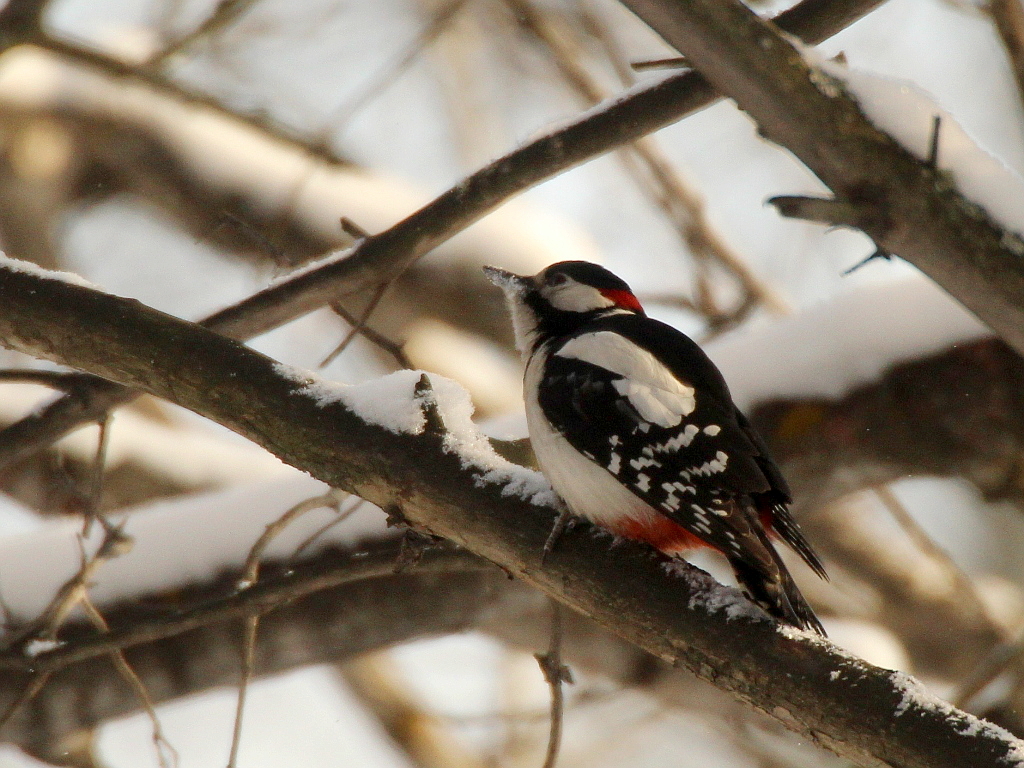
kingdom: Animalia
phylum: Chordata
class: Aves
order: Piciformes
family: Picidae
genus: Dendrocopos
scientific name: Dendrocopos major
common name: Great spotted woodpecker
